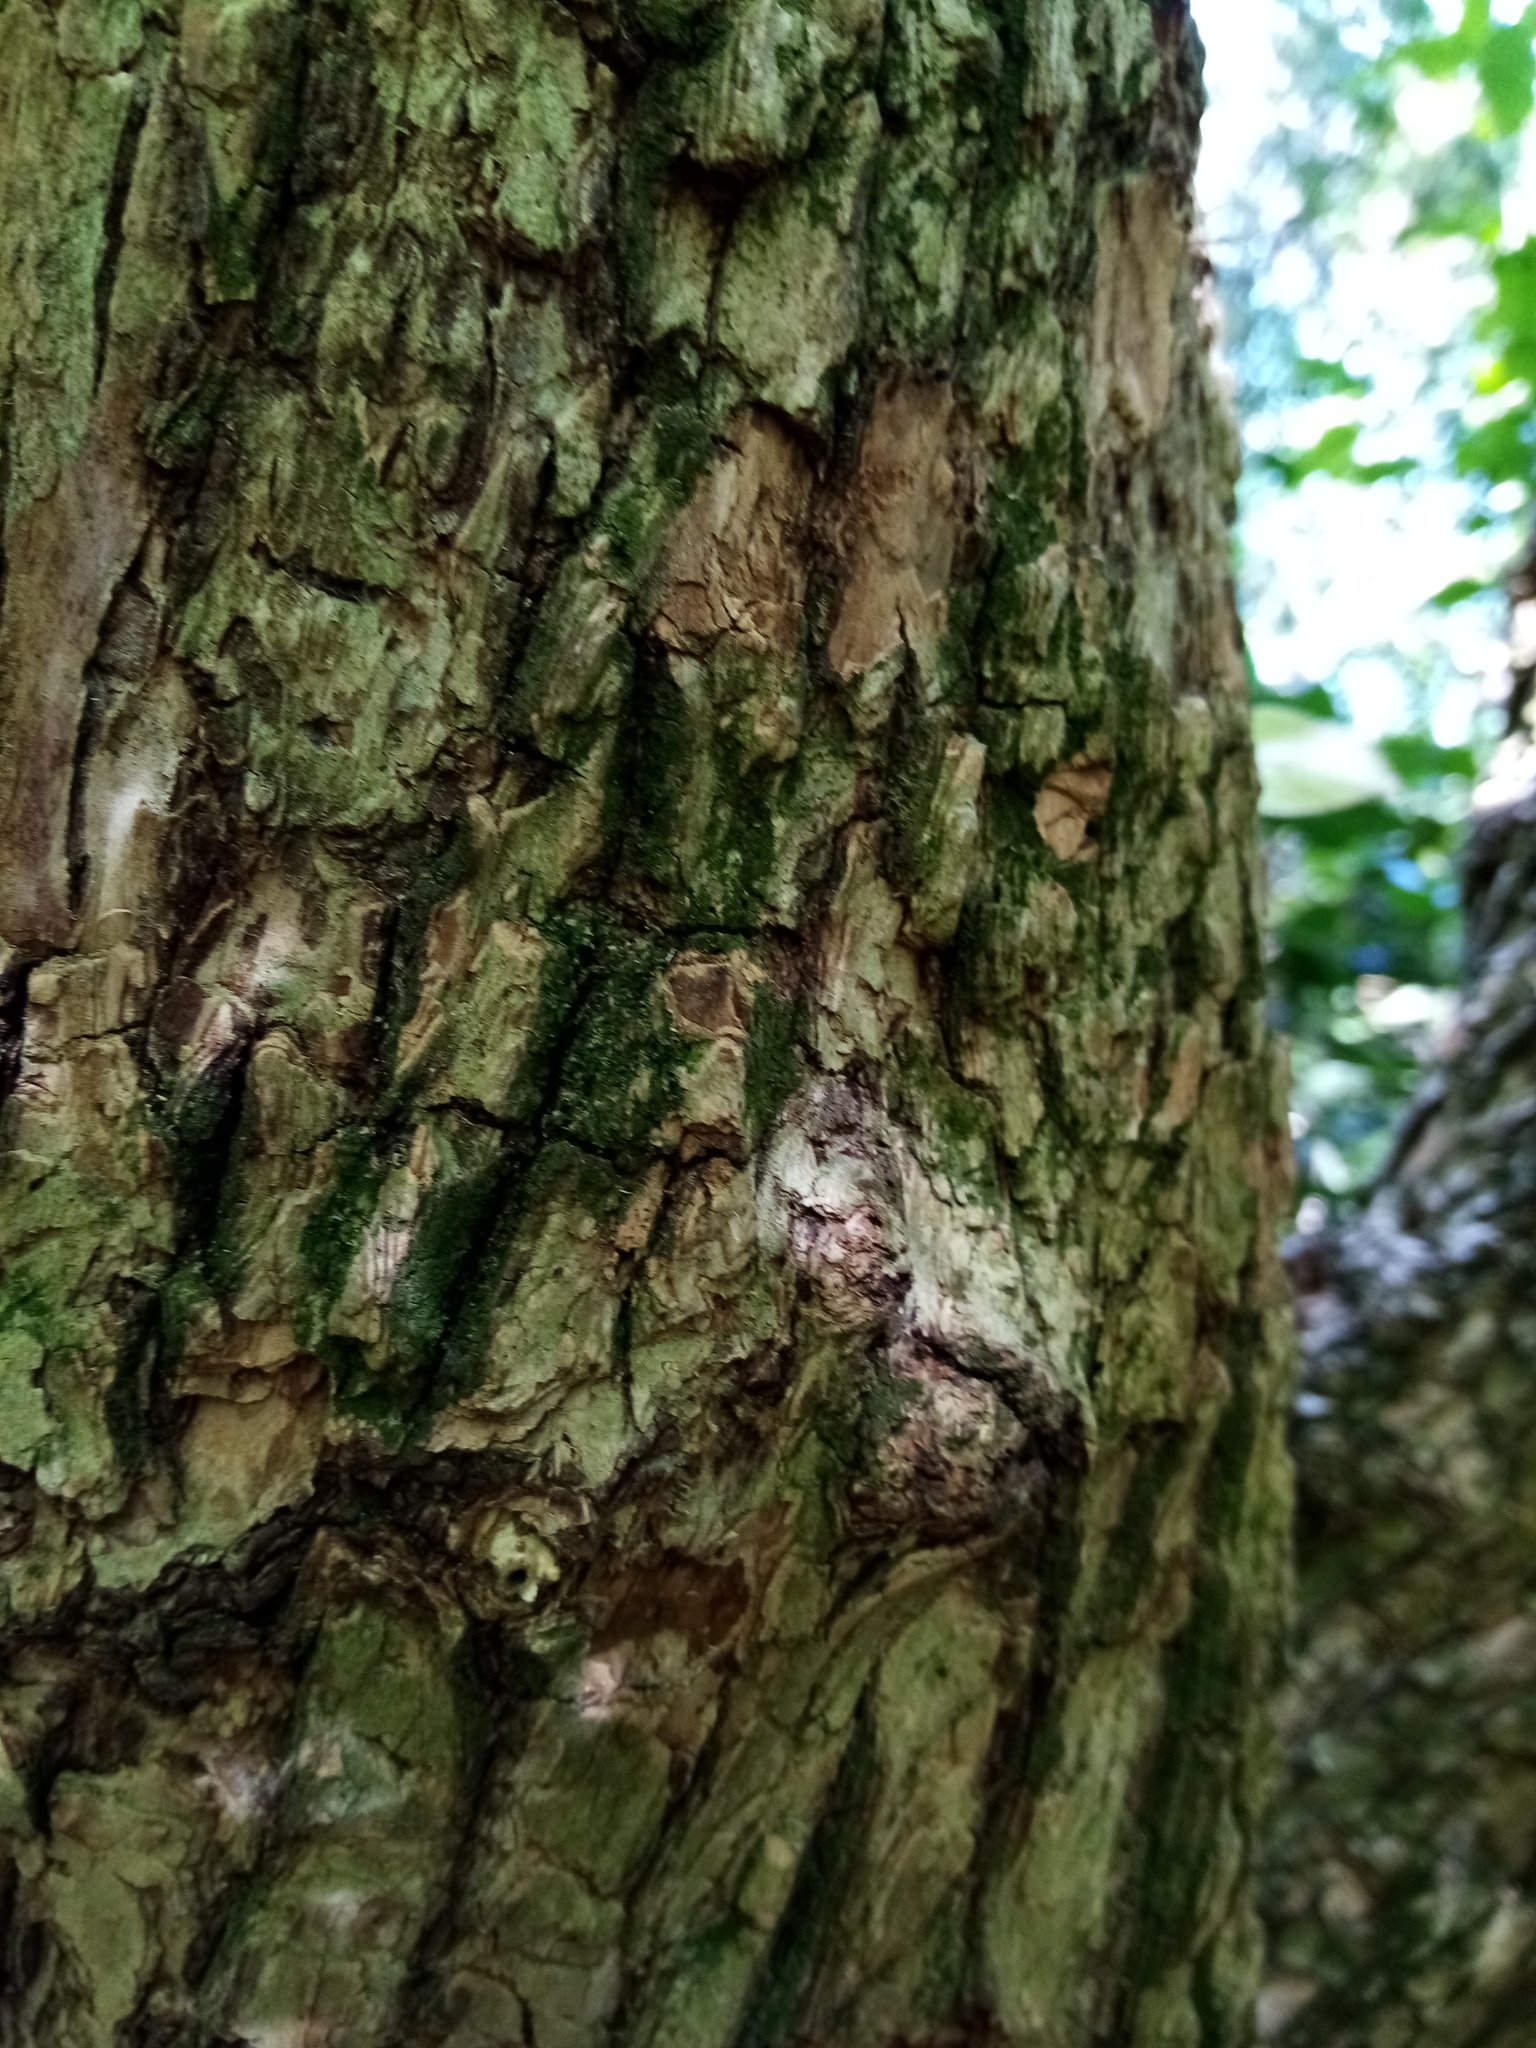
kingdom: Plantae
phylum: Tracheophyta
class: Magnoliopsida
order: Dipsacales
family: Viburnaceae
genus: Sambucus
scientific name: Sambucus nigra
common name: Elder
